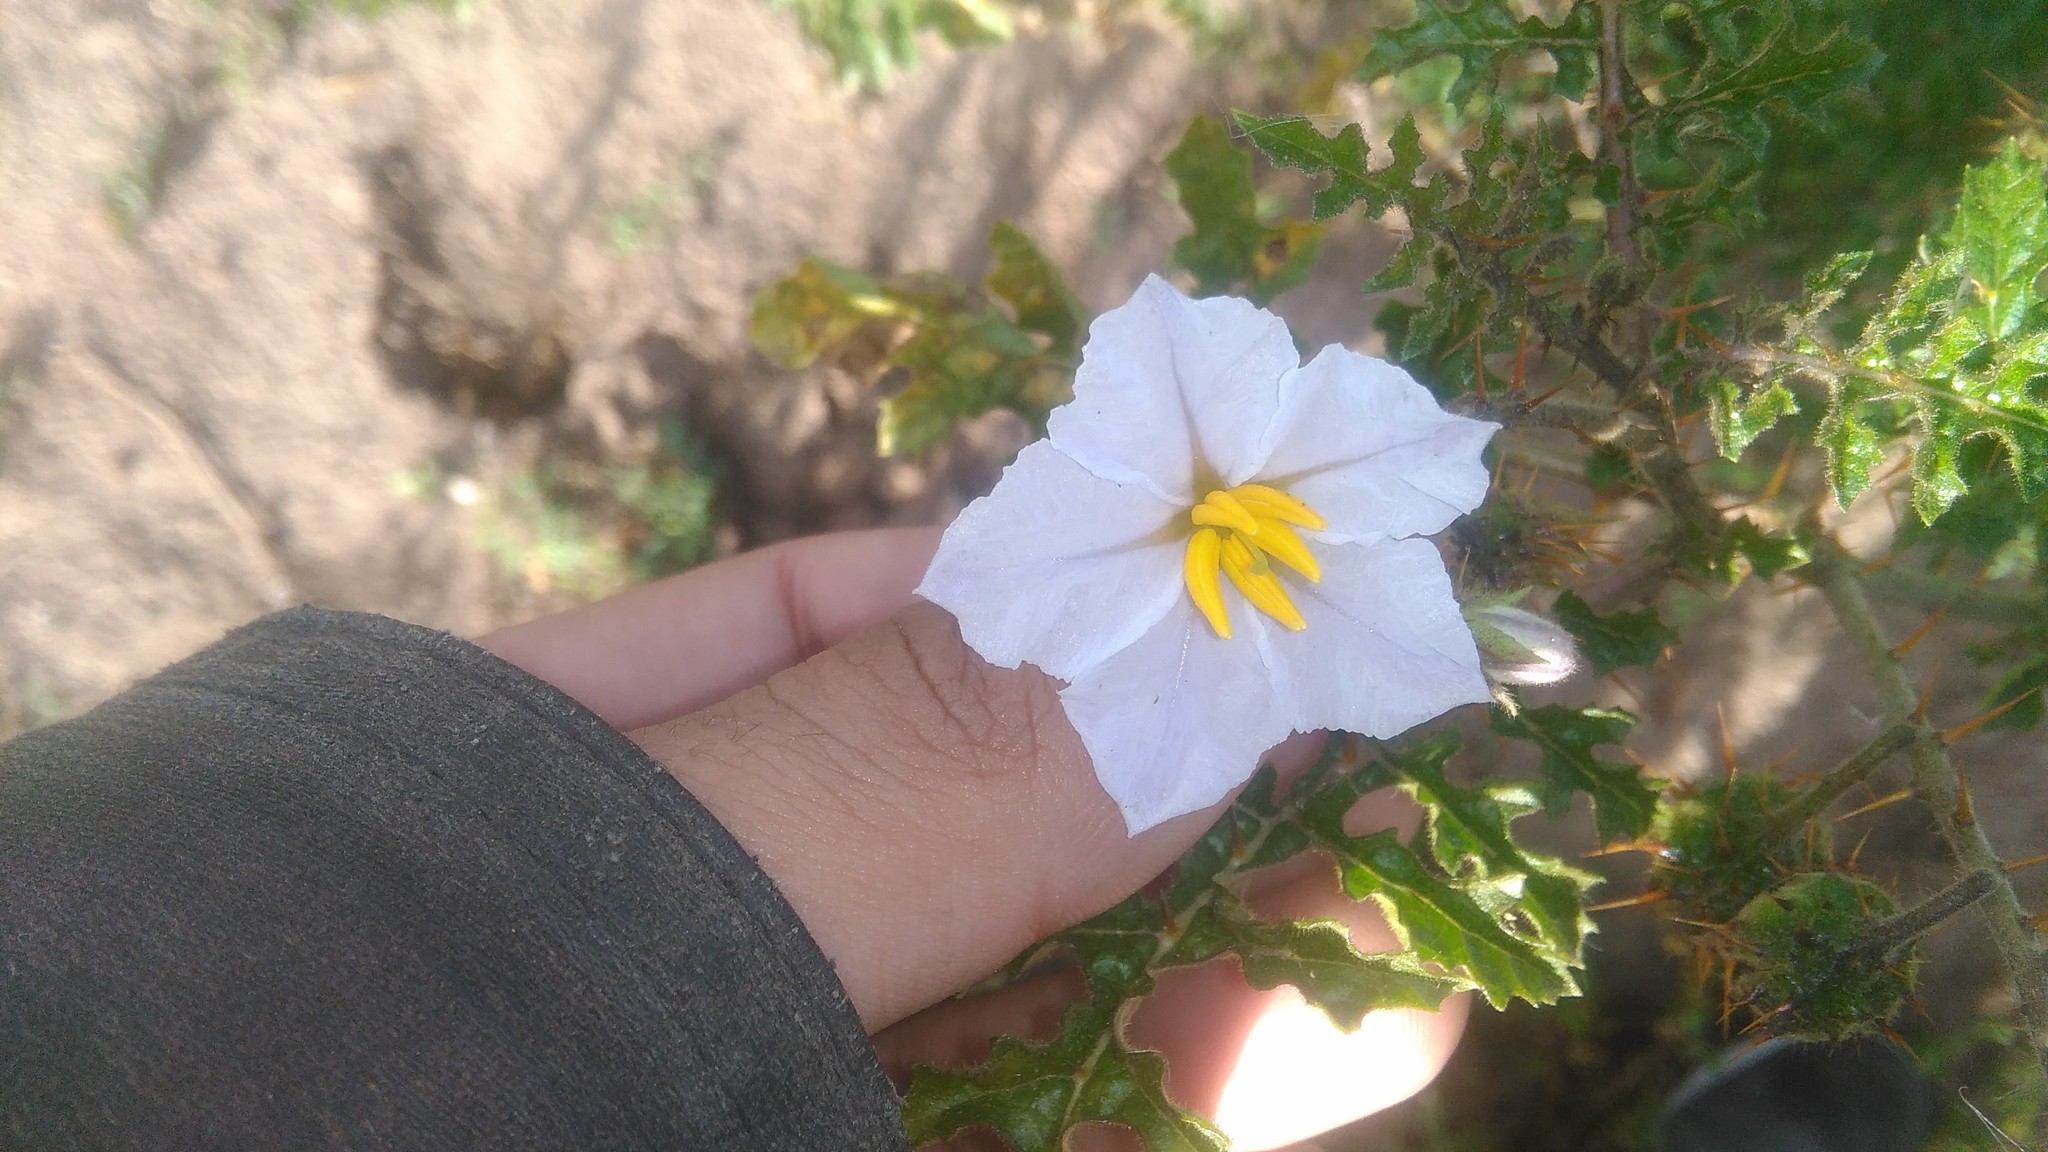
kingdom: Plantae
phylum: Tracheophyta
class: Magnoliopsida
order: Solanales
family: Solanaceae
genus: Solanum
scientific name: Solanum sisymbriifolium
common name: Red buffalo-bur
